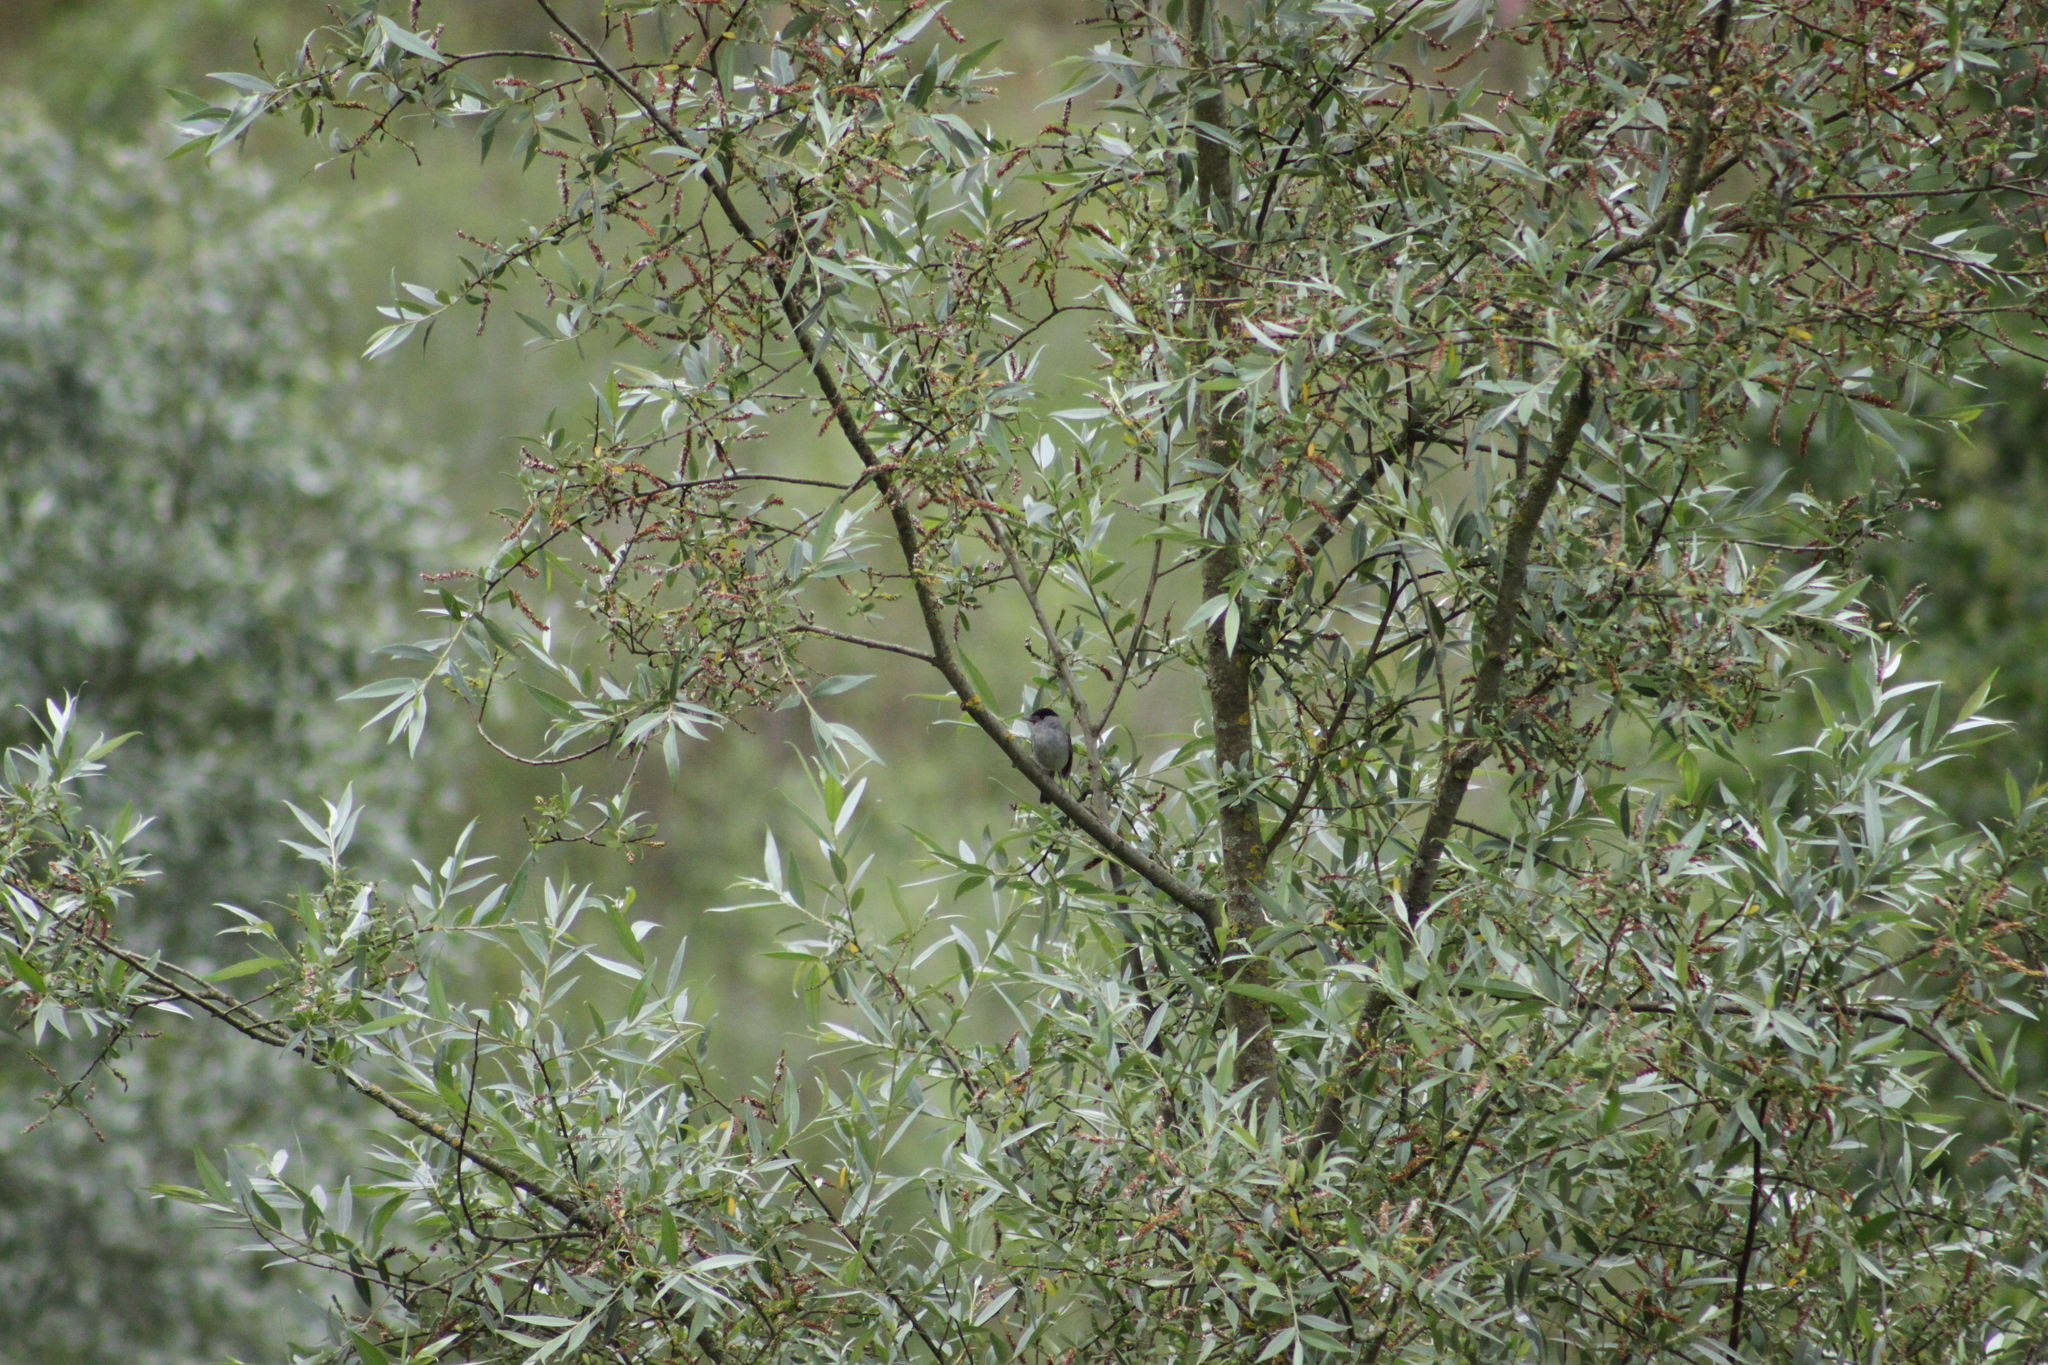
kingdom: Animalia
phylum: Chordata
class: Aves
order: Passeriformes
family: Sylviidae
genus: Sylvia
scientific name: Sylvia atricapilla
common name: Eurasian blackcap
